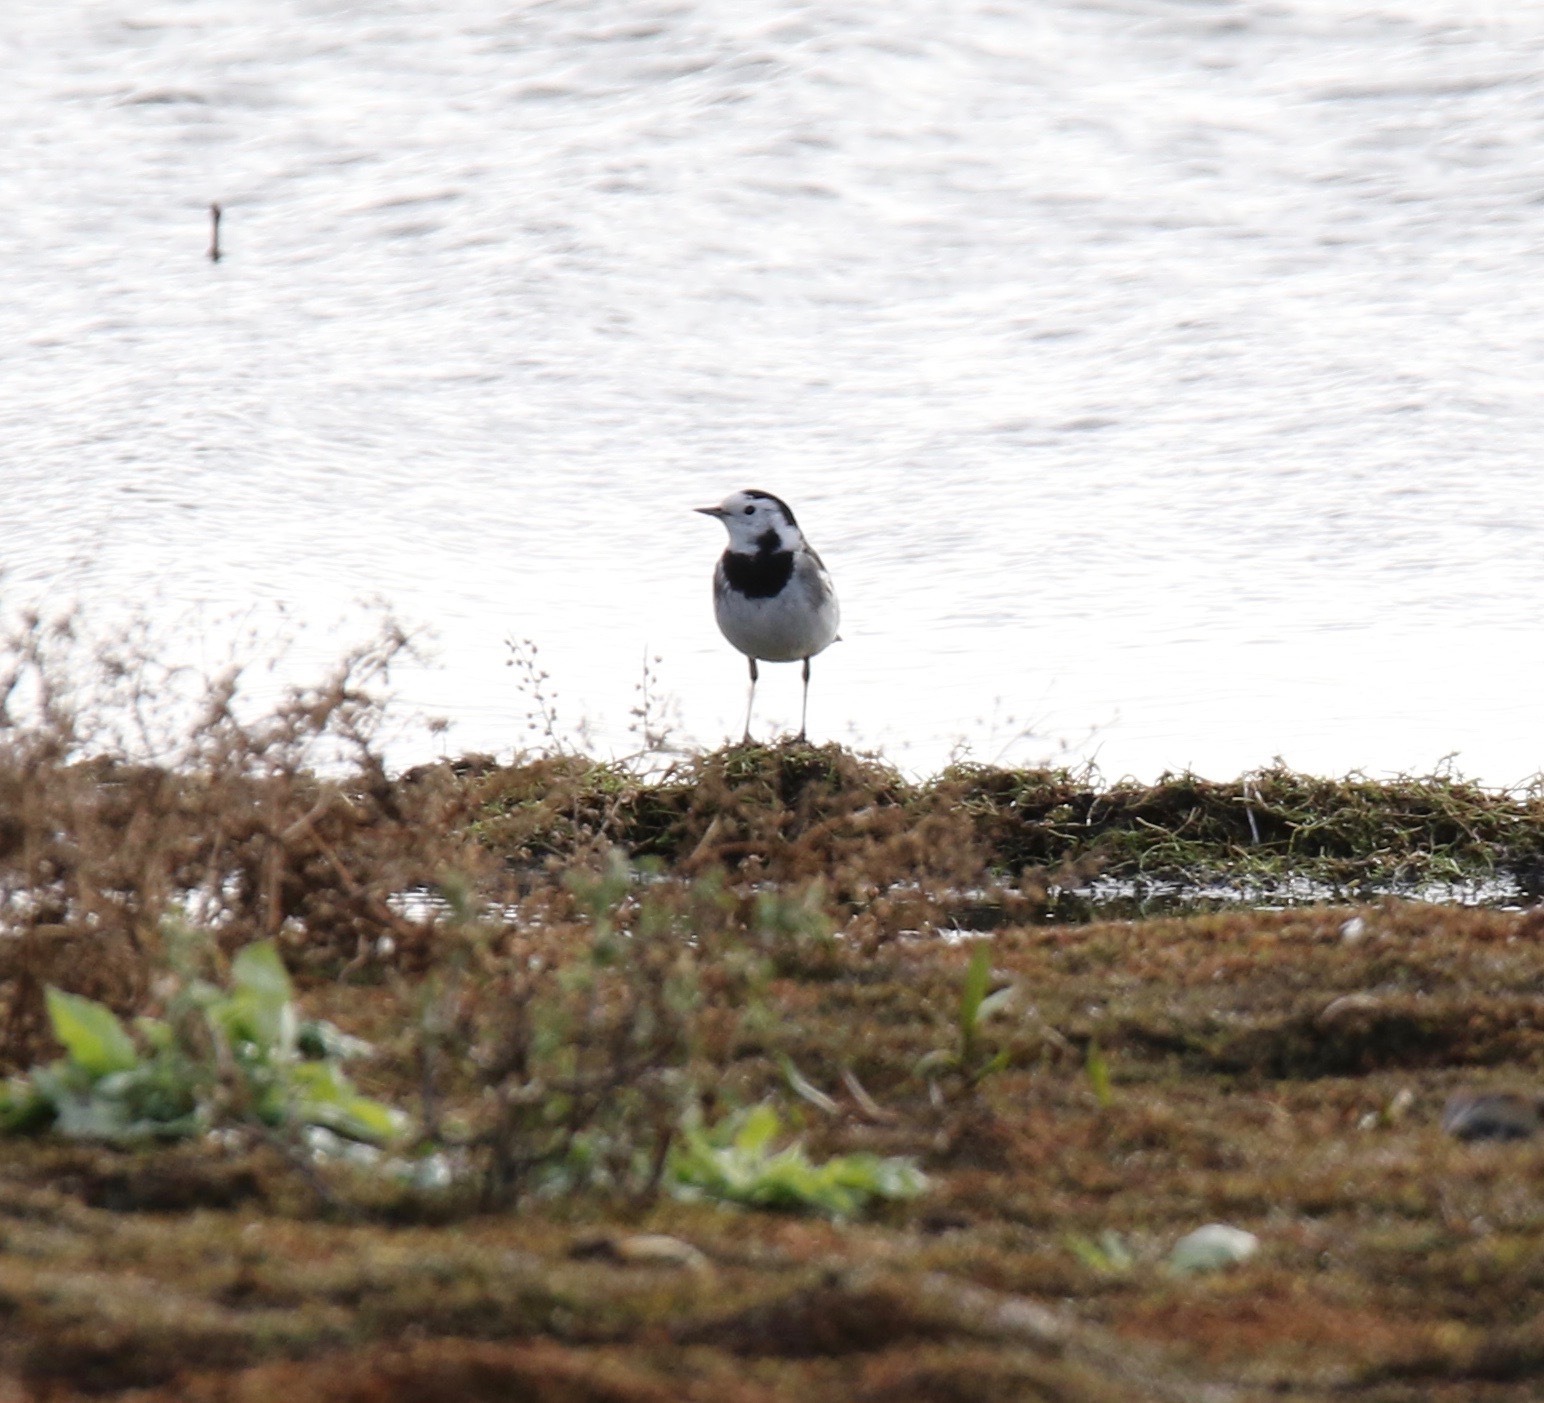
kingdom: Animalia
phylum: Chordata
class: Aves
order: Passeriformes
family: Motacillidae
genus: Motacilla
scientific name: Motacilla alba
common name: White wagtail
